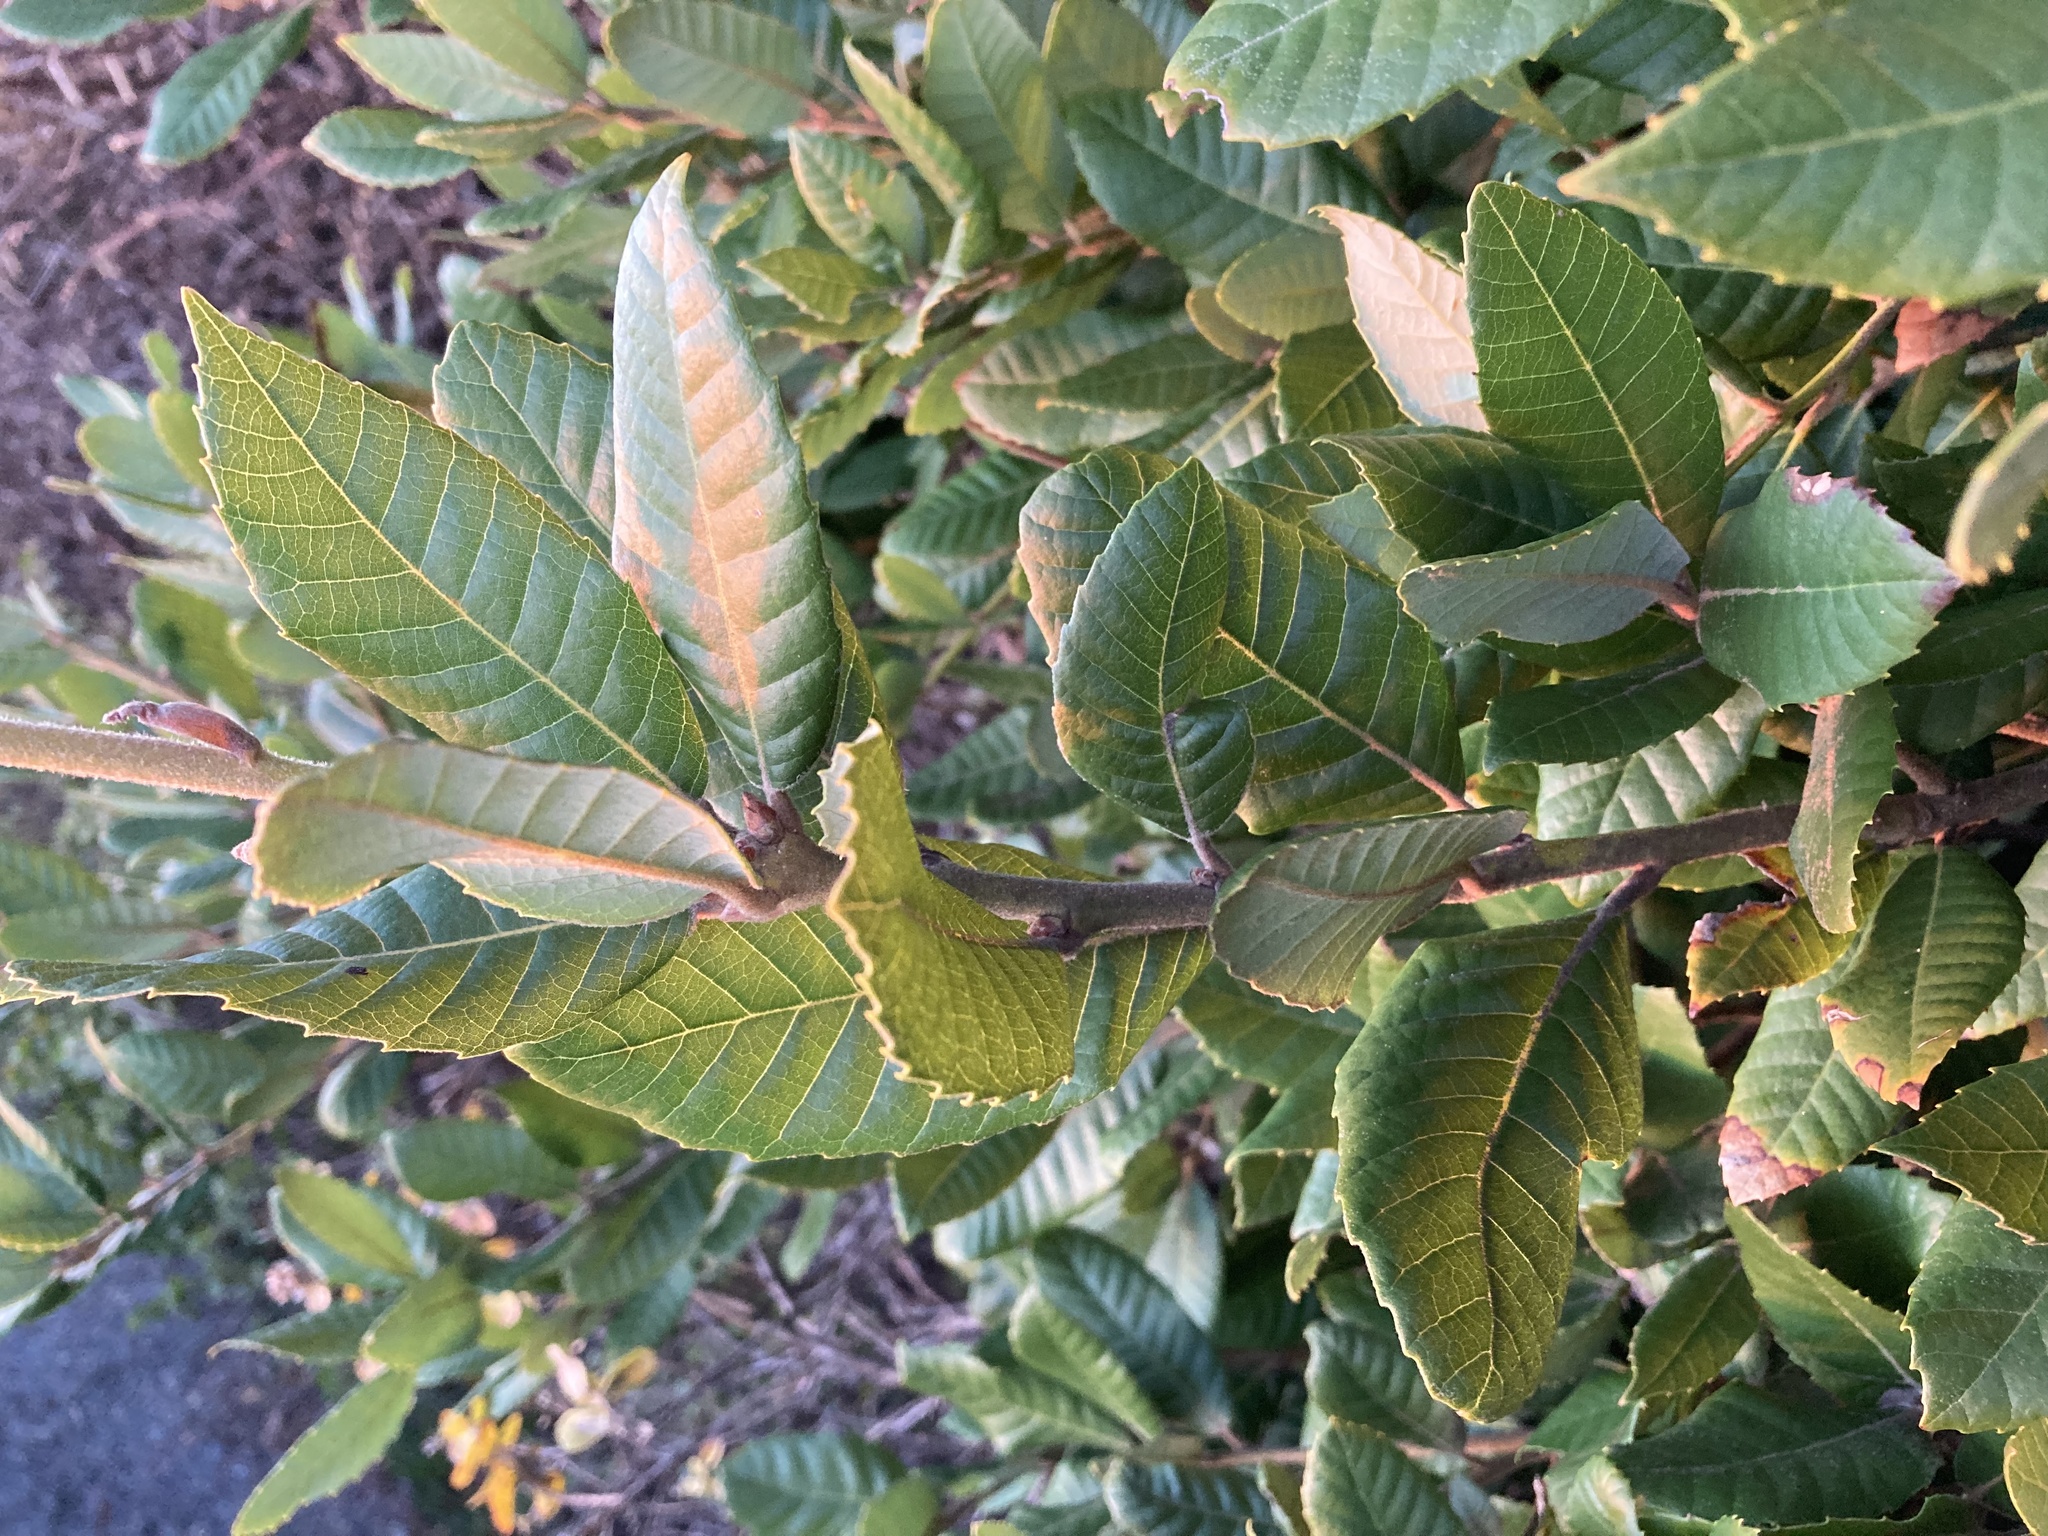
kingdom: Plantae
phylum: Tracheophyta
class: Magnoliopsida
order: Fagales
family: Fagaceae
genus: Notholithocarpus
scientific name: Notholithocarpus densiflorus
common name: Tan bark oak
